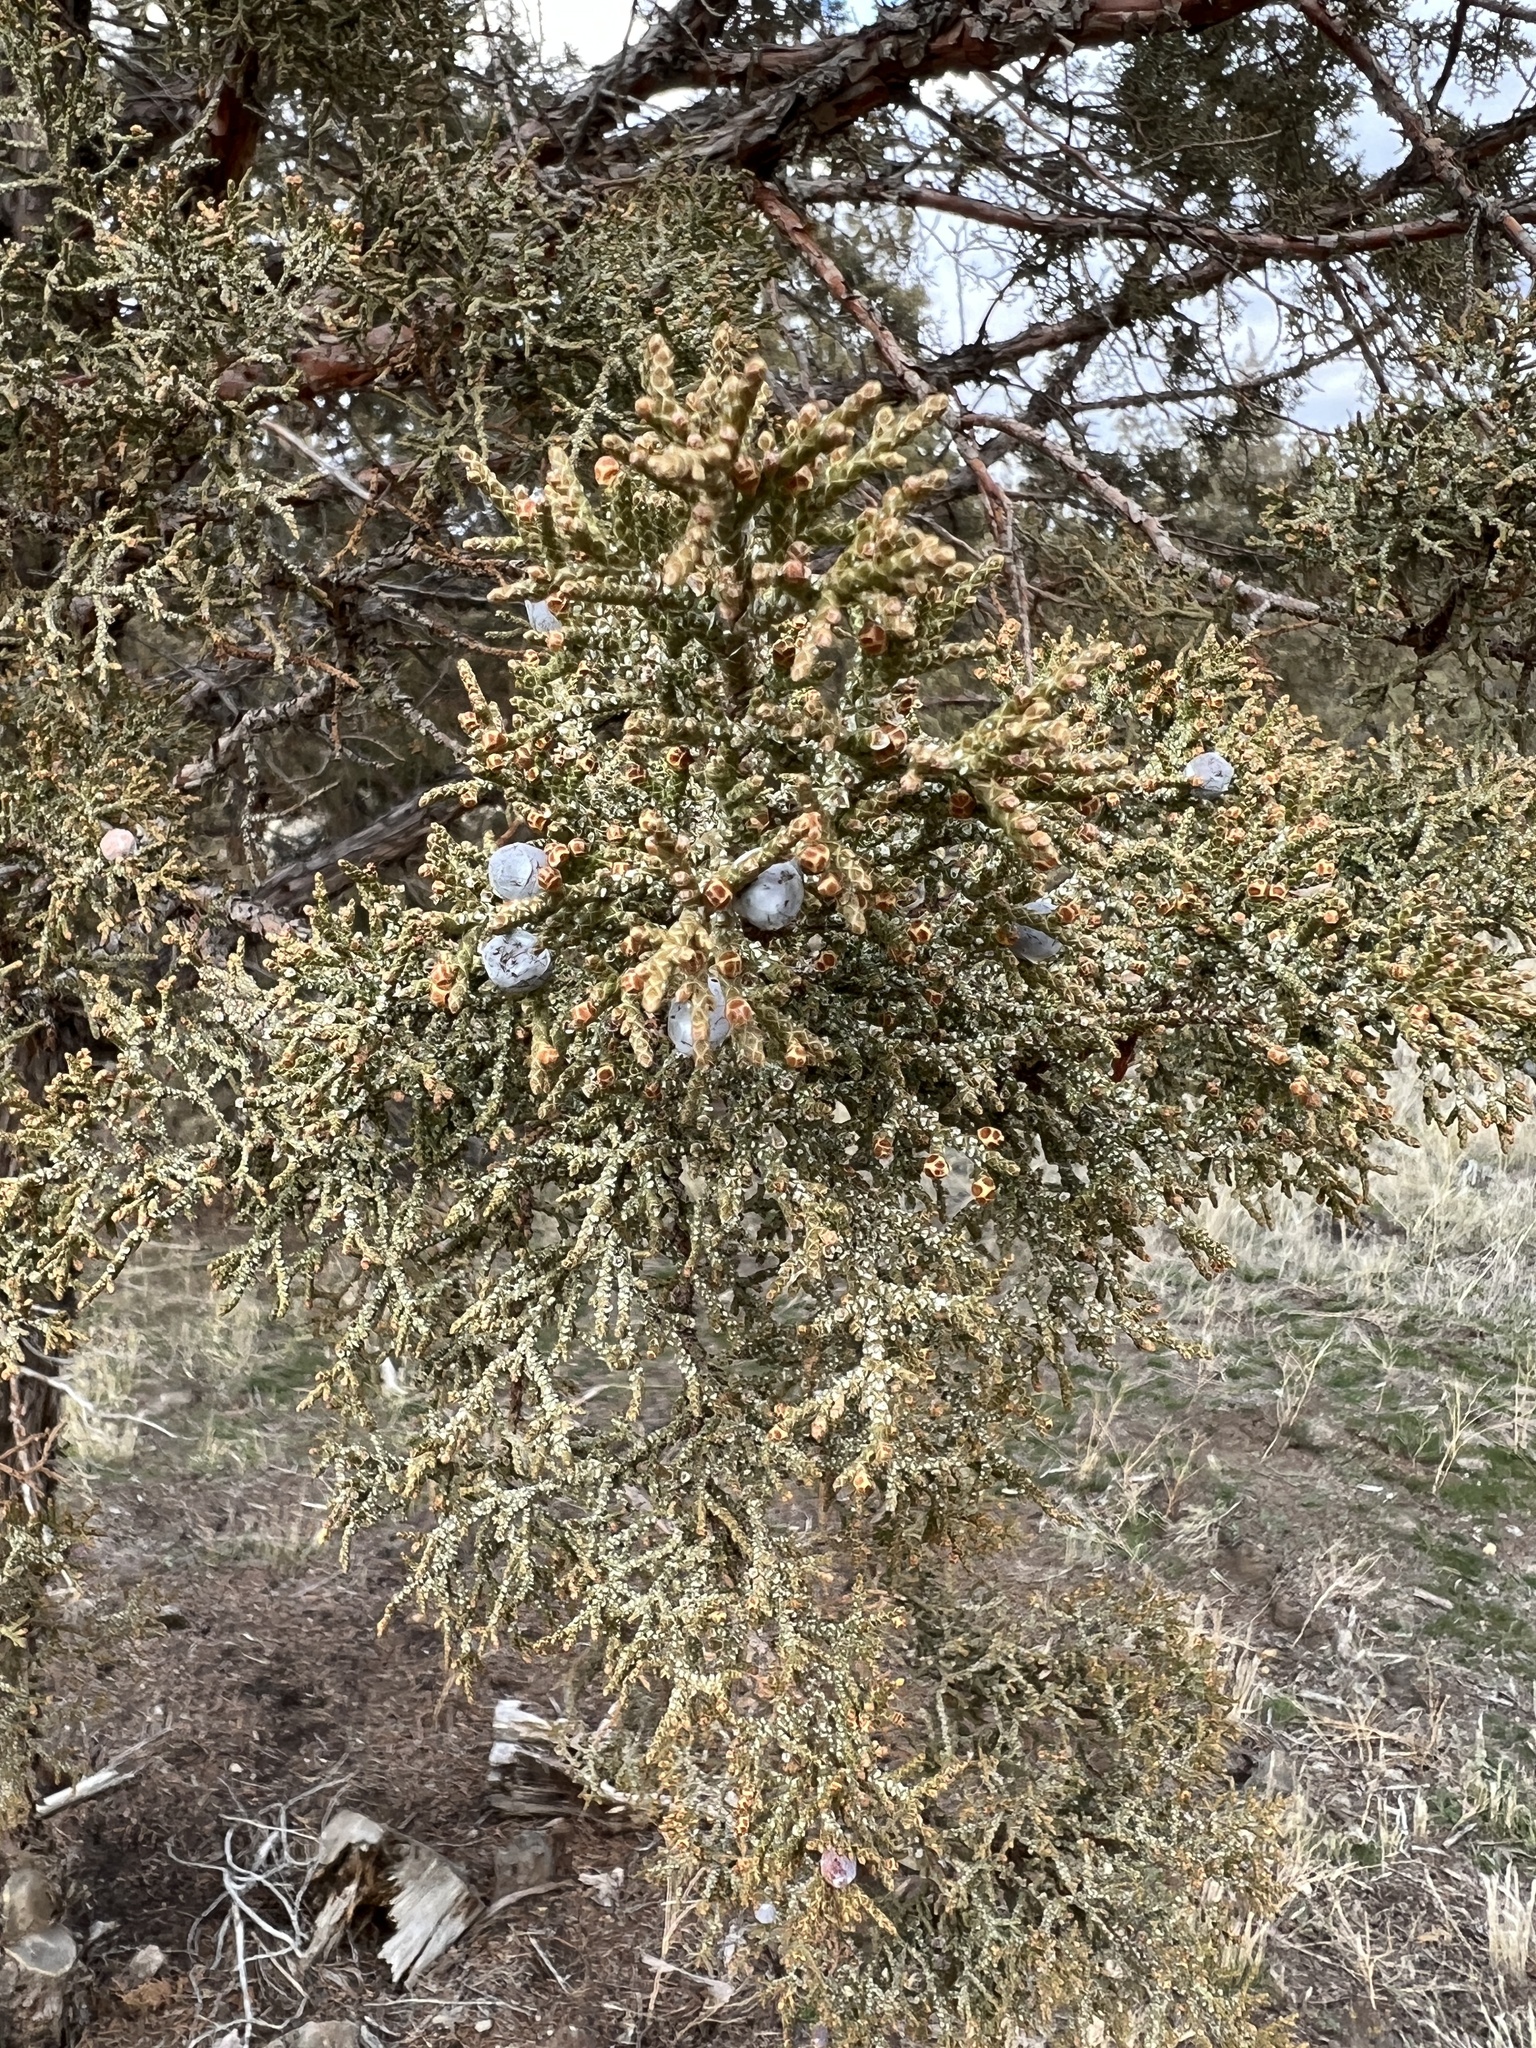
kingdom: Plantae
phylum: Tracheophyta
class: Pinopsida
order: Pinales
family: Cupressaceae
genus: Juniperus
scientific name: Juniperus occidentalis
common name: Western juniper
